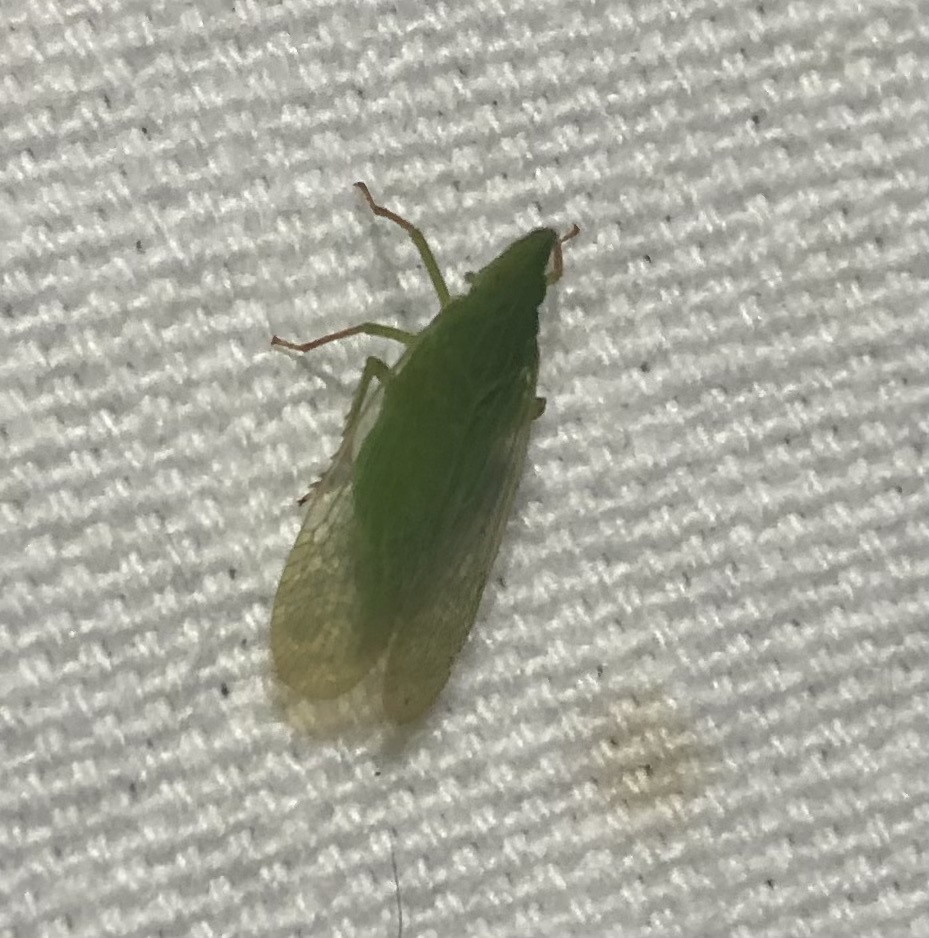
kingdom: Animalia
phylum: Arthropoda
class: Insecta
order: Hemiptera
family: Dictyopharidae
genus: Rhynchomitra
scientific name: Rhynchomitra recurva
